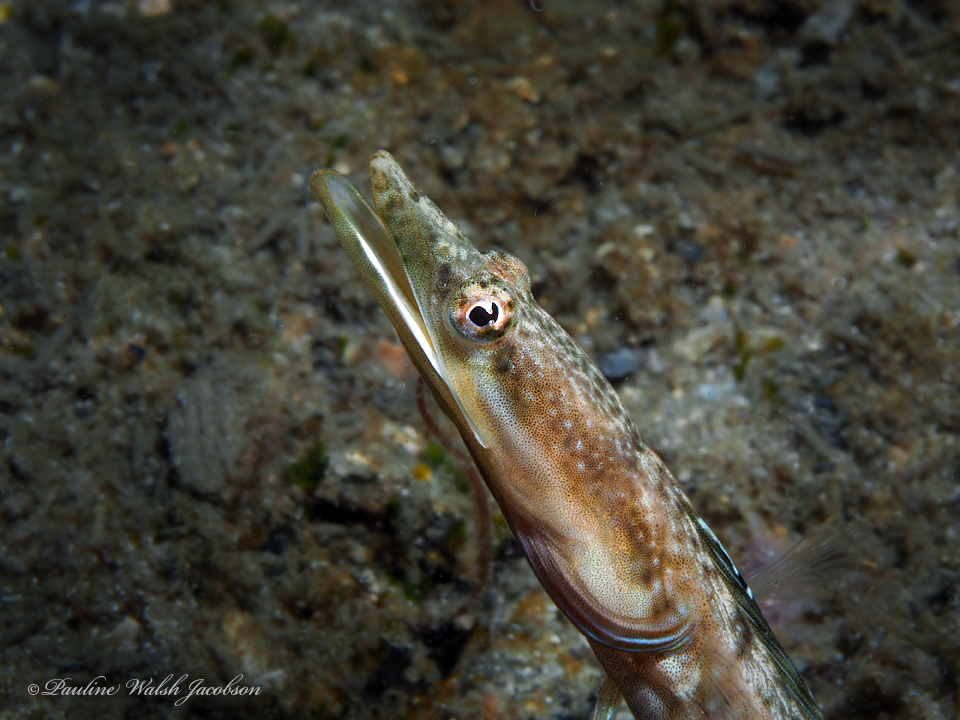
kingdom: Animalia
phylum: Chordata
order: Perciformes
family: Chaenopsidae
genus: Chaenopsis
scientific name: Chaenopsis ocellata
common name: Bluethroat pikeblenny
